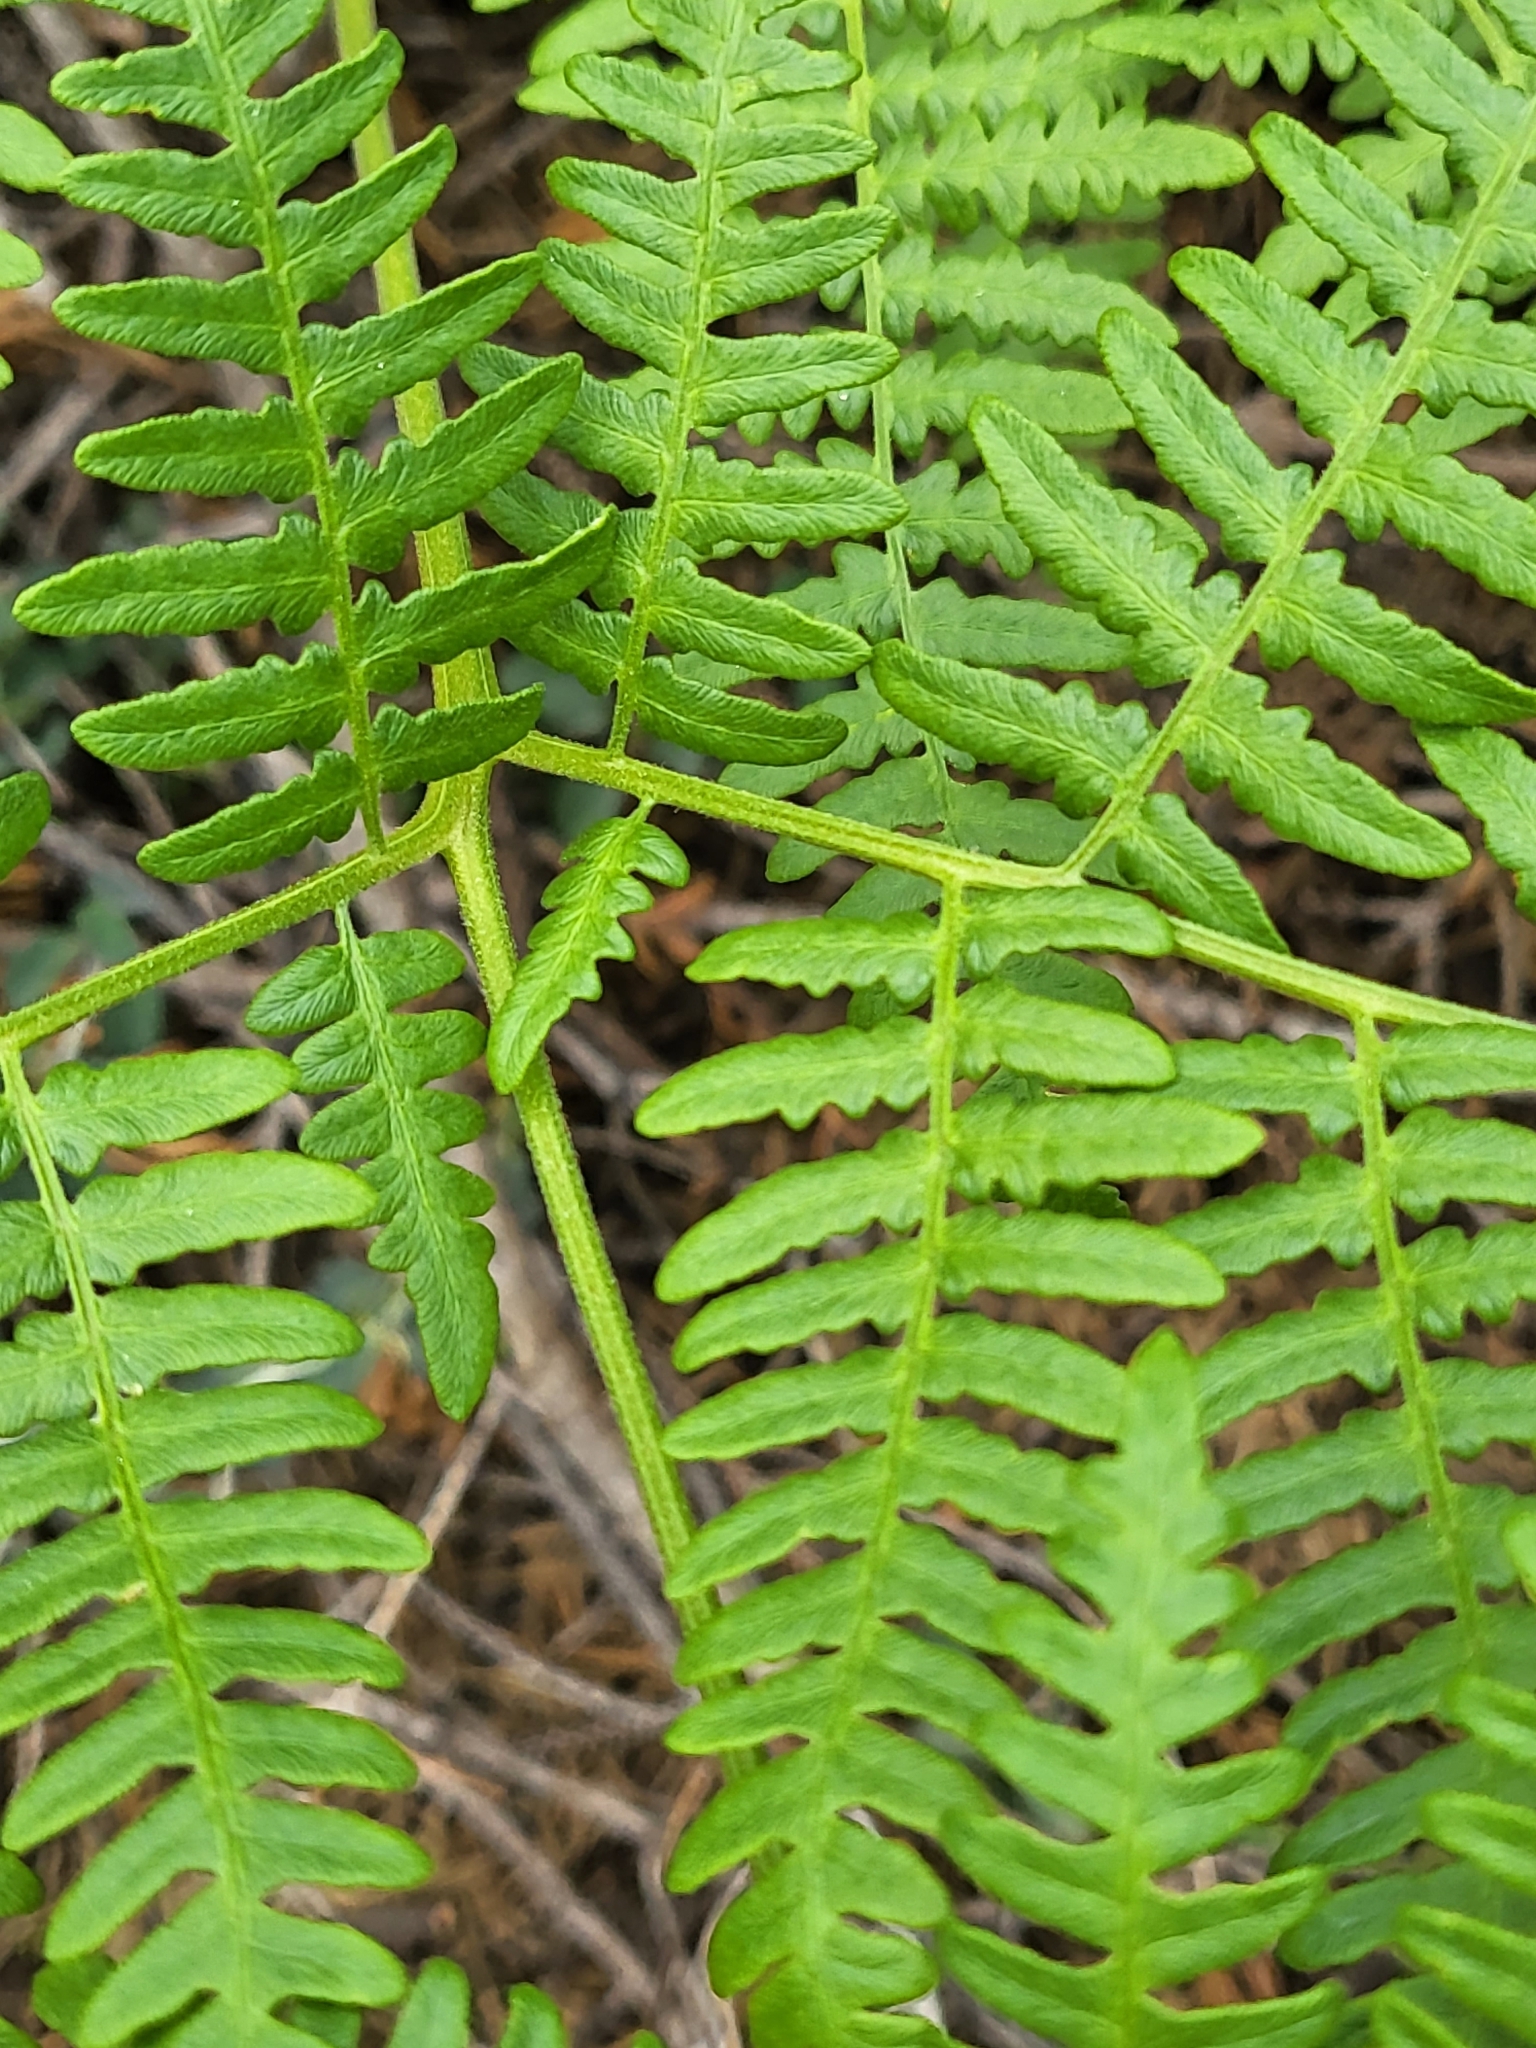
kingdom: Plantae
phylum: Tracheophyta
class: Polypodiopsida
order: Polypodiales
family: Dennstaedtiaceae
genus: Pteridium
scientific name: Pteridium aquilinum
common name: Bracken
